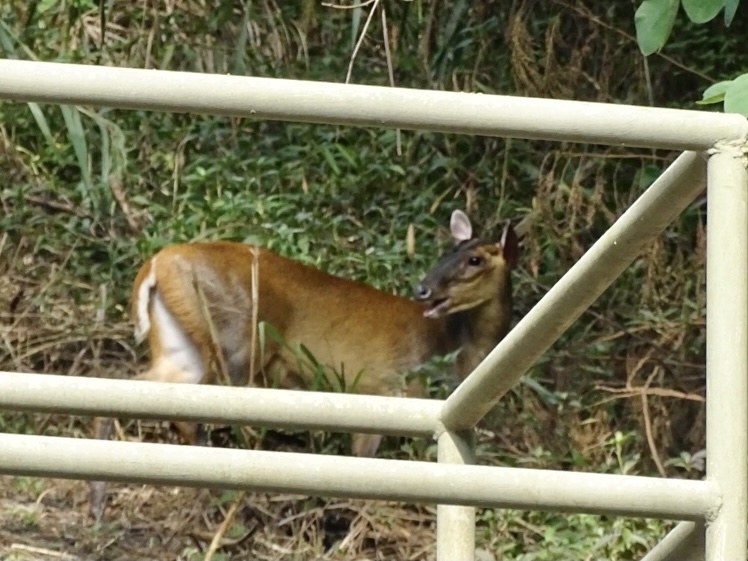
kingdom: Animalia
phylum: Chordata
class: Mammalia
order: Artiodactyla
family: Cervidae
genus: Muntiacus
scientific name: Muntiacus muntjak
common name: Indian muntjac
